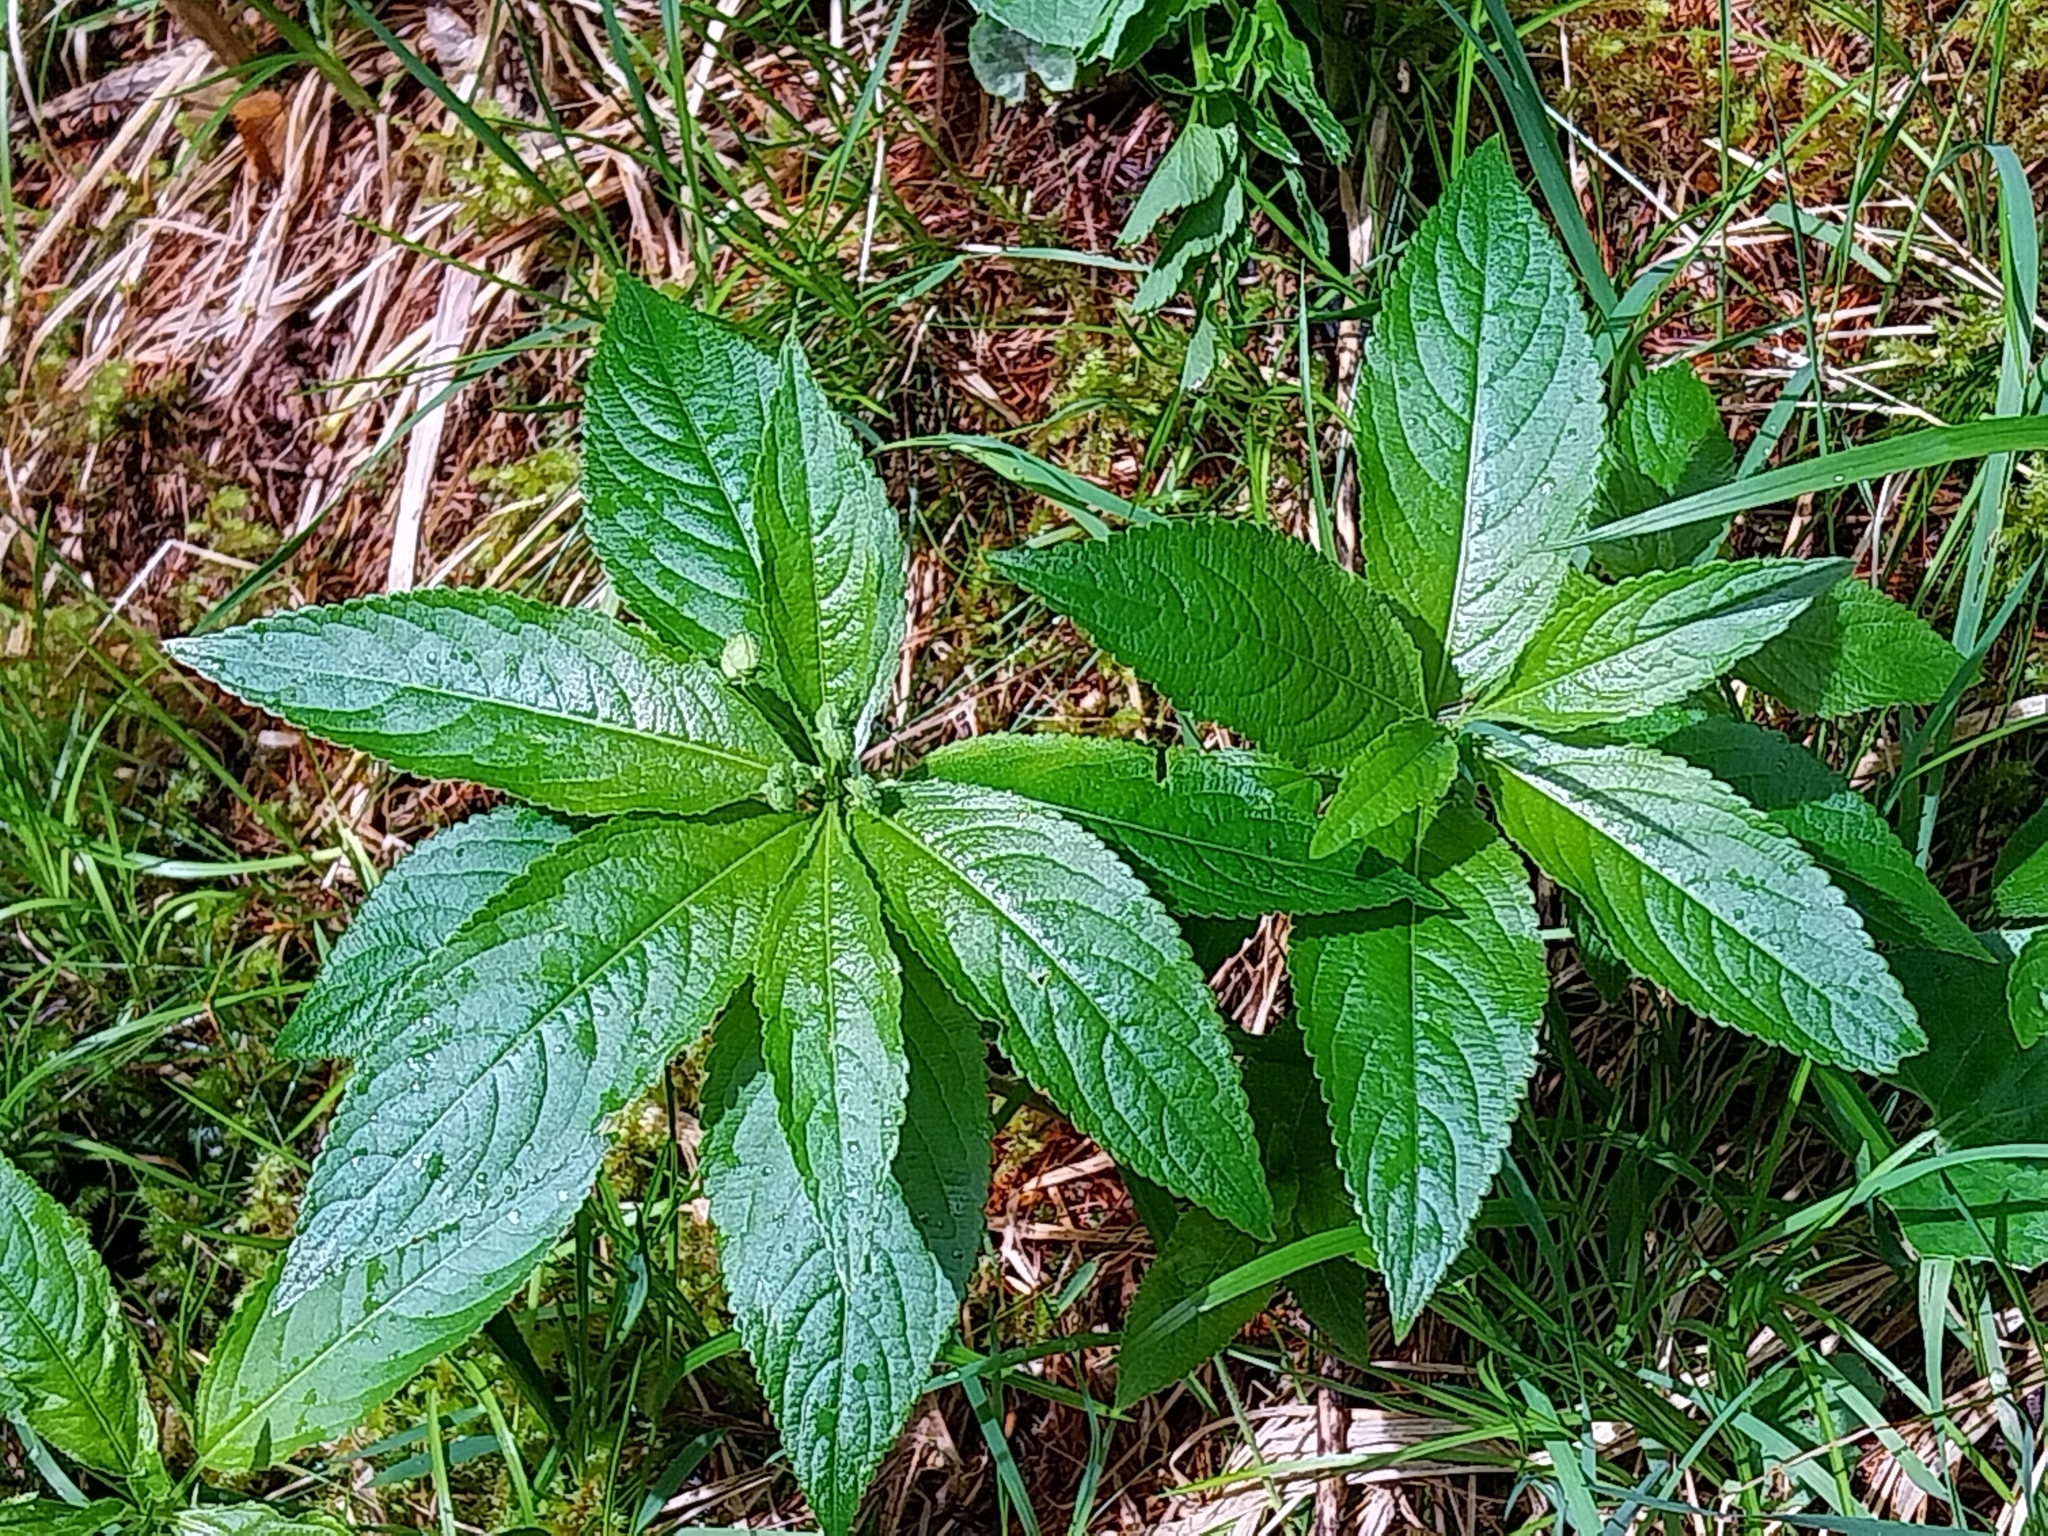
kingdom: Plantae
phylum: Tracheophyta
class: Magnoliopsida
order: Malpighiales
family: Euphorbiaceae
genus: Mercurialis
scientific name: Mercurialis perennis
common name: Dog mercury
